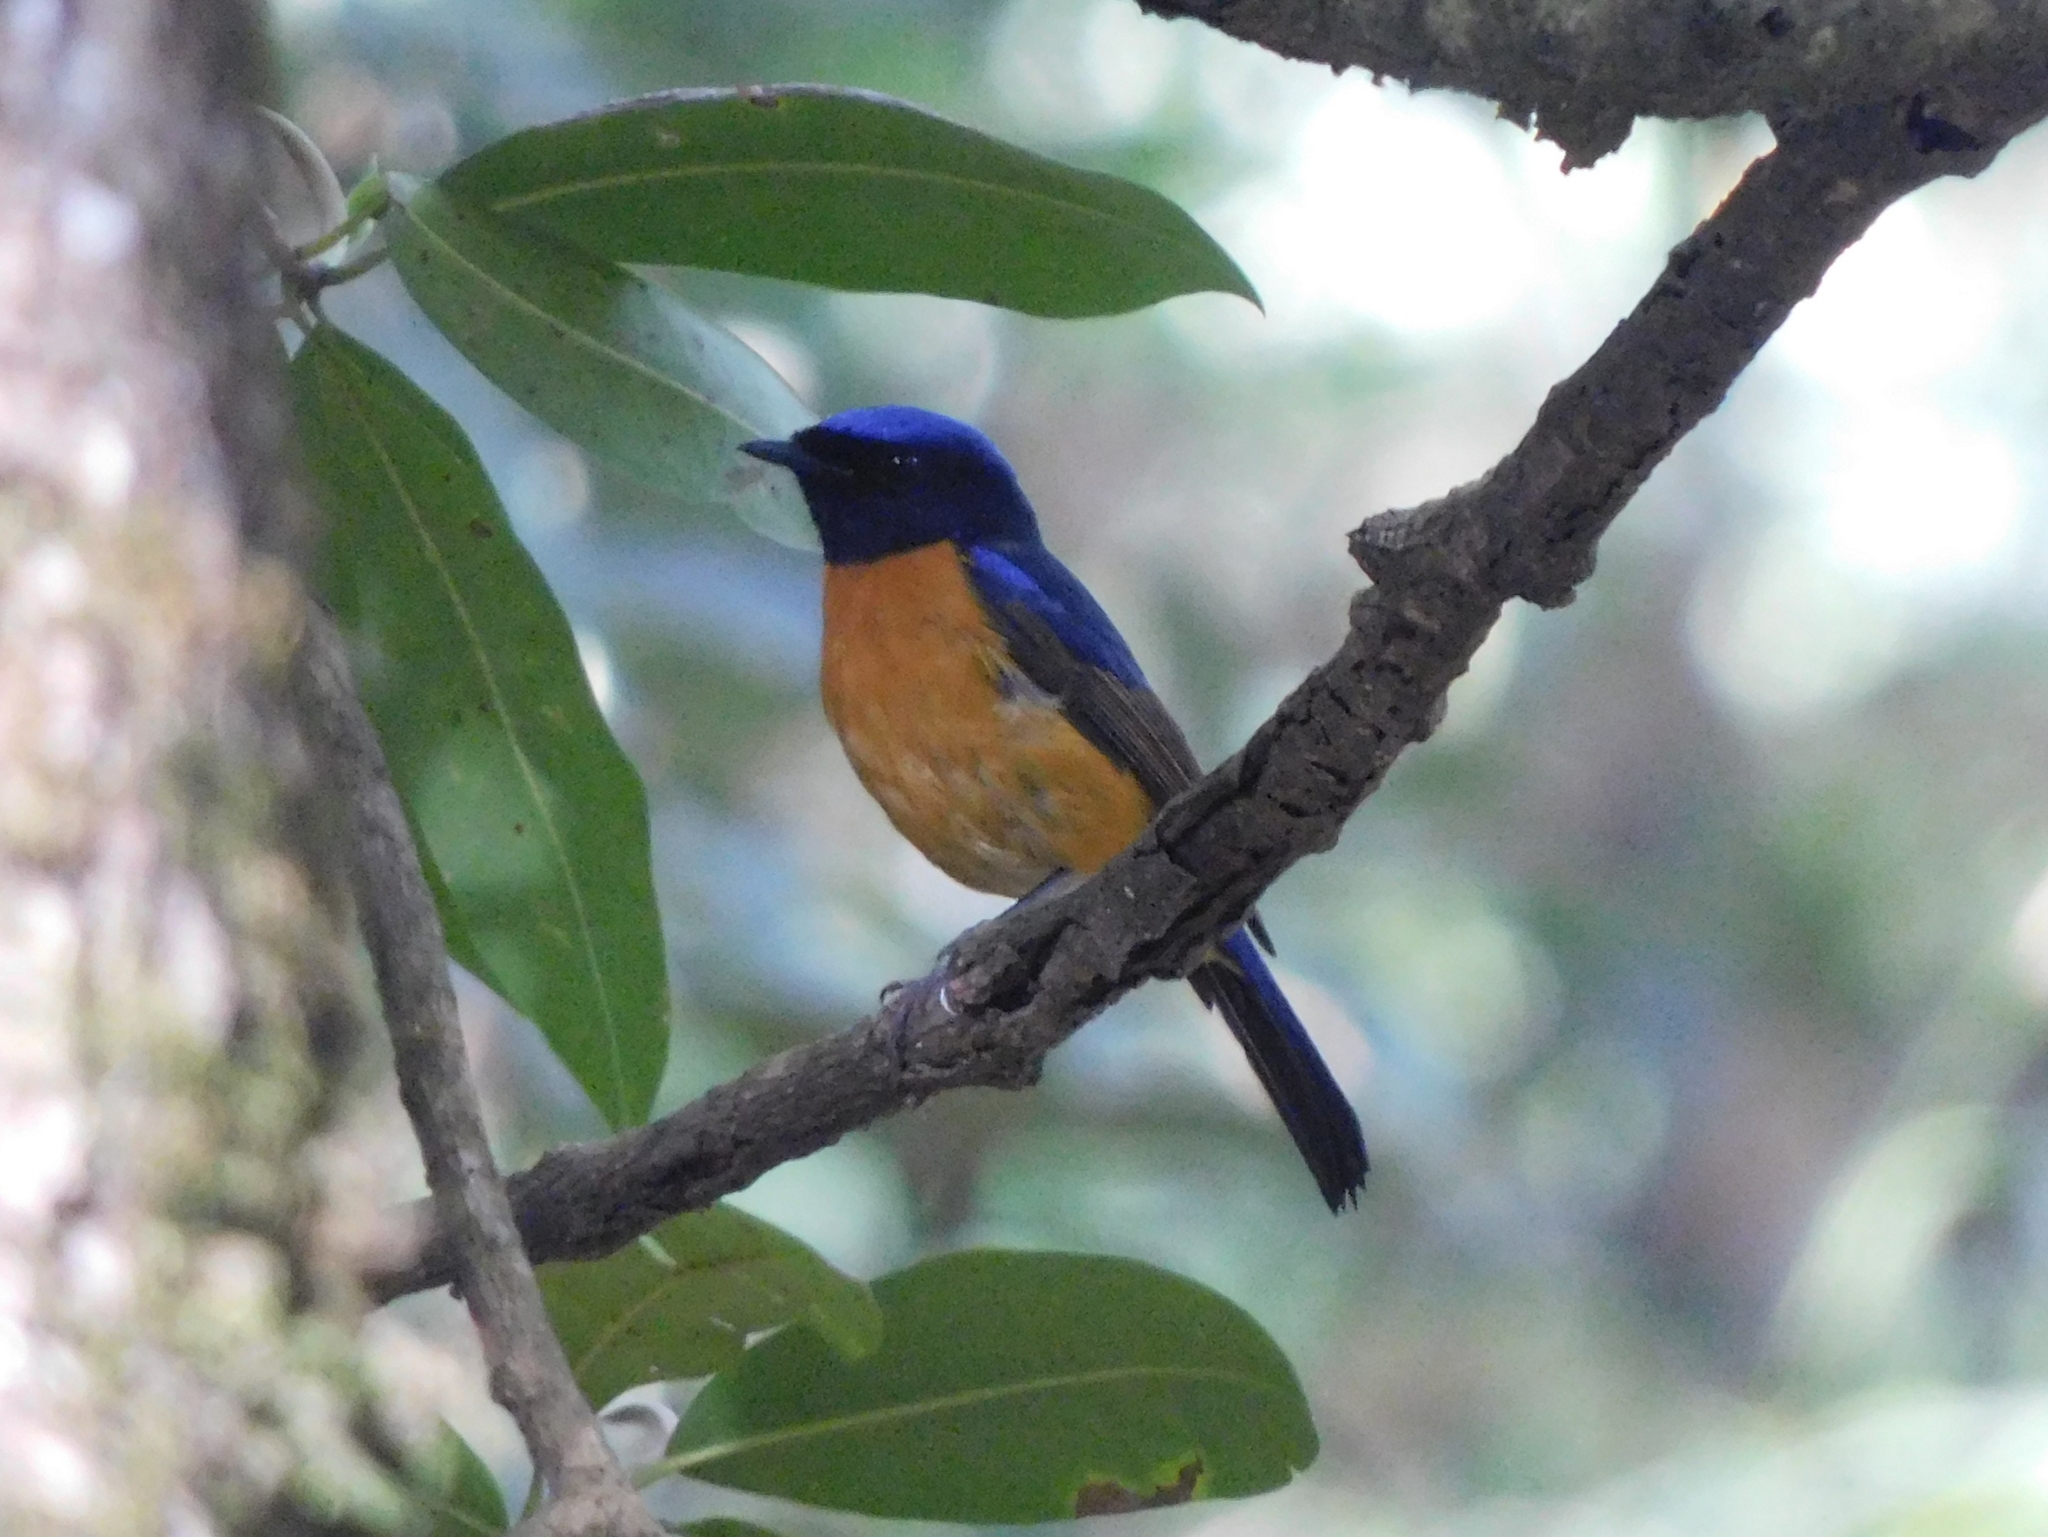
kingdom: Animalia
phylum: Chordata
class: Aves
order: Passeriformes
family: Muscicapidae
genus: Niltava
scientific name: Niltava sundara
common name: Rufous-bellied niltava
